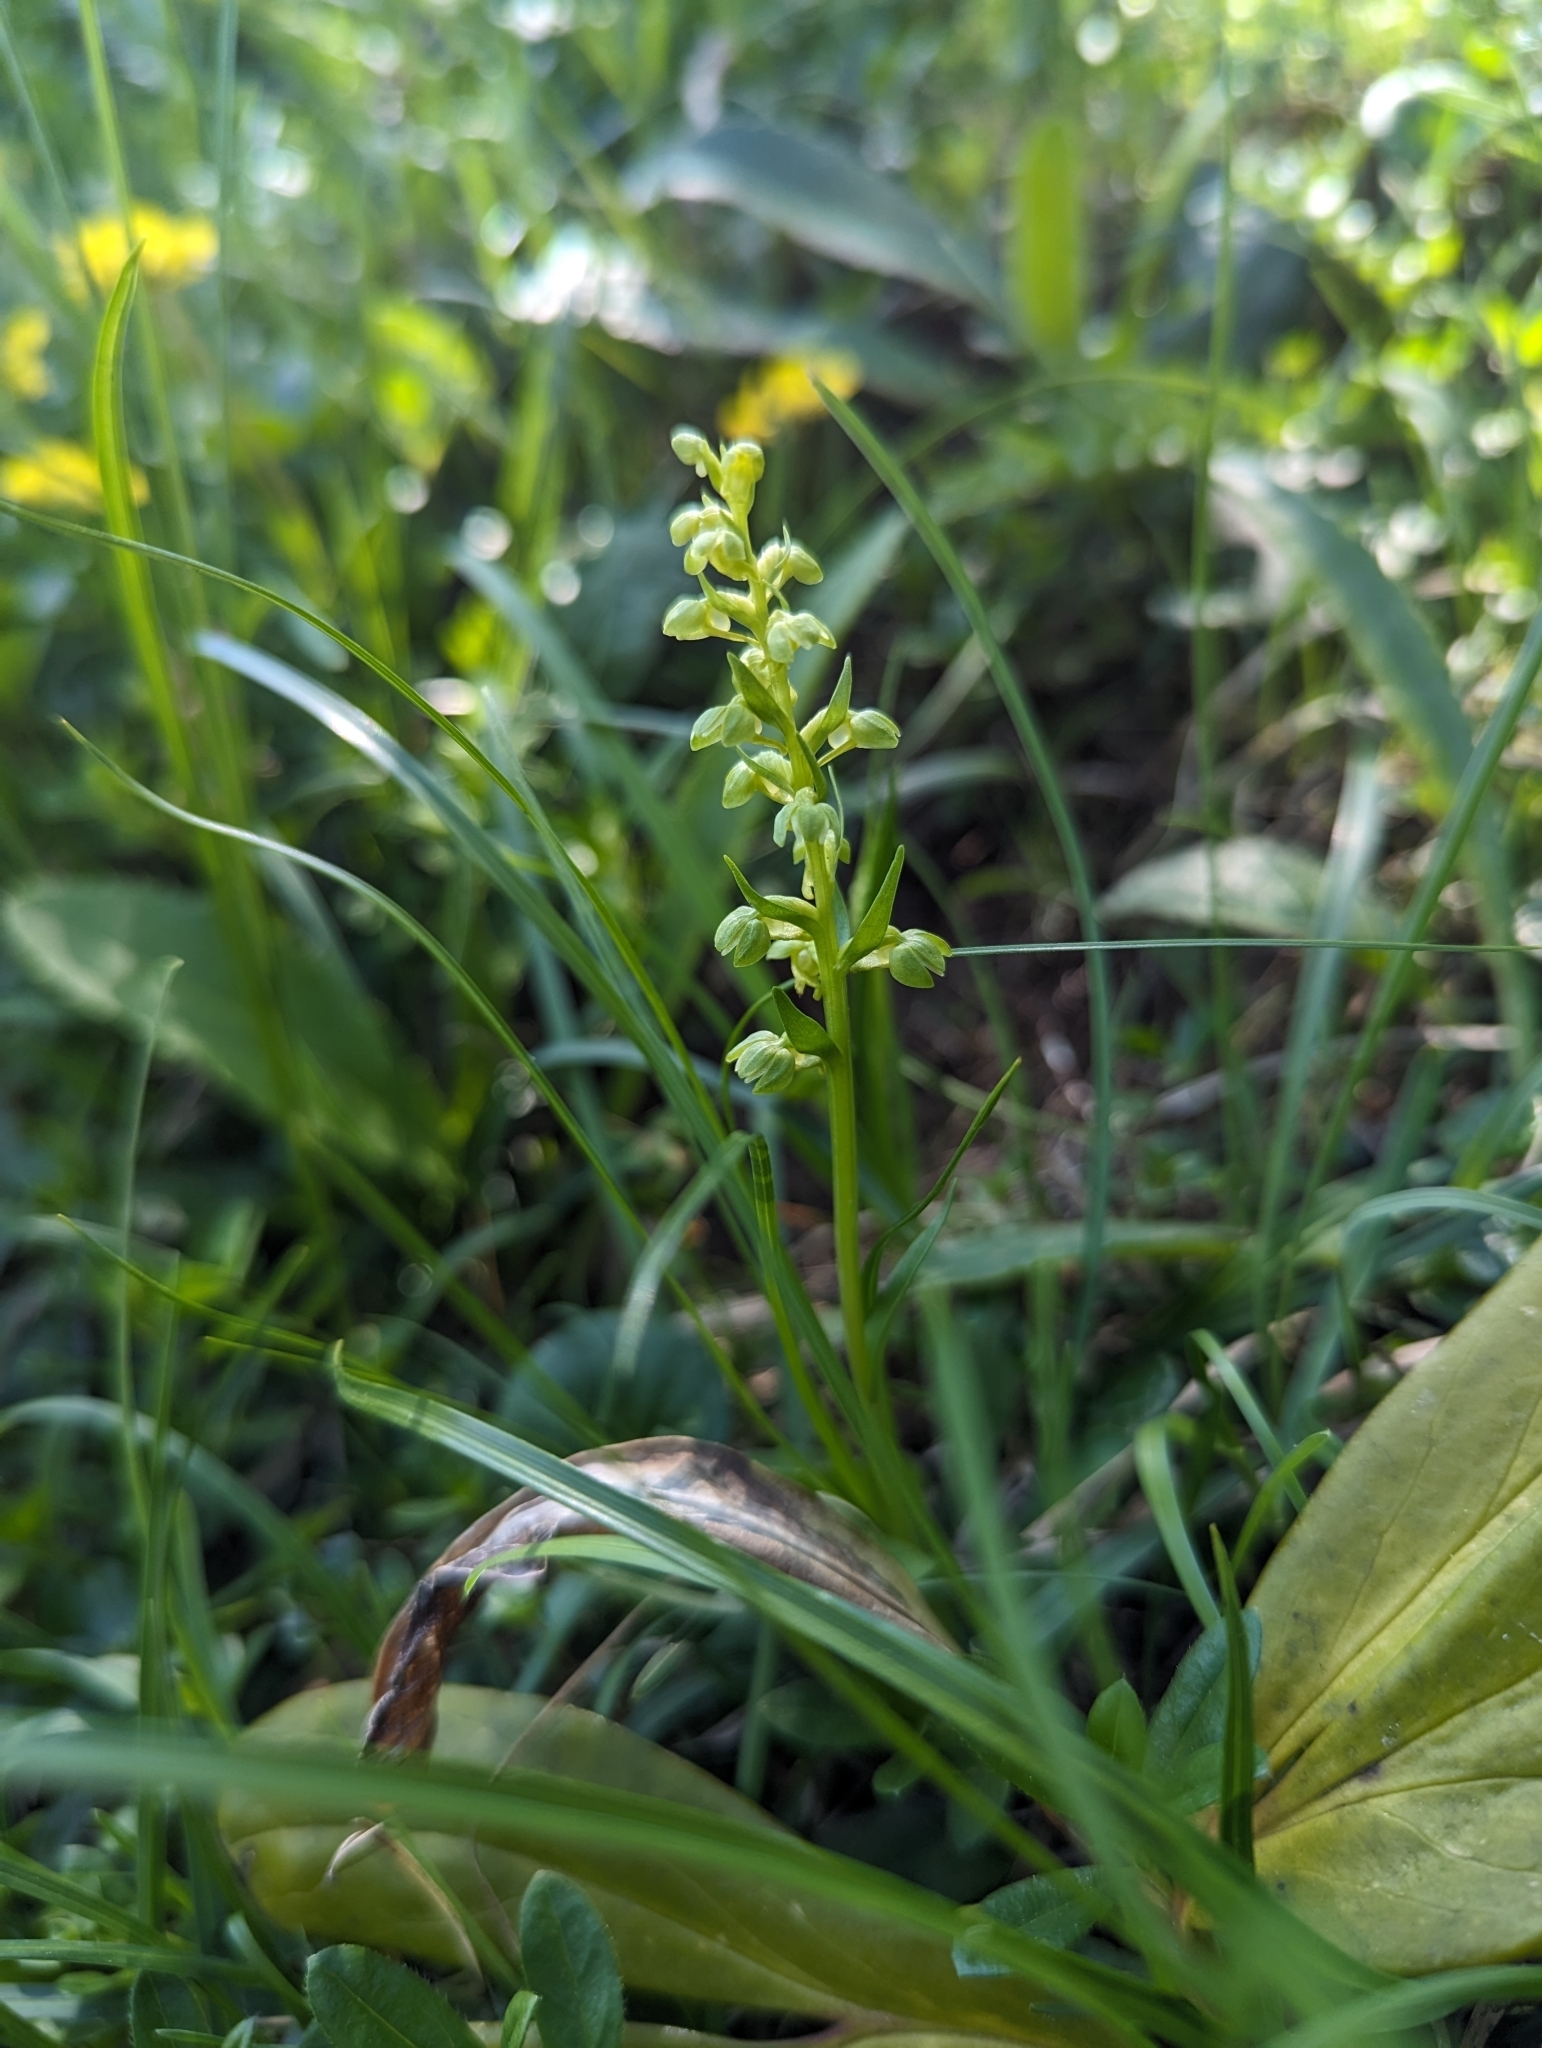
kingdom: Plantae
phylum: Tracheophyta
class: Liliopsida
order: Asparagales
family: Orchidaceae
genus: Dactylorhiza
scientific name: Dactylorhiza viridis
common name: Longbract frog orchid
